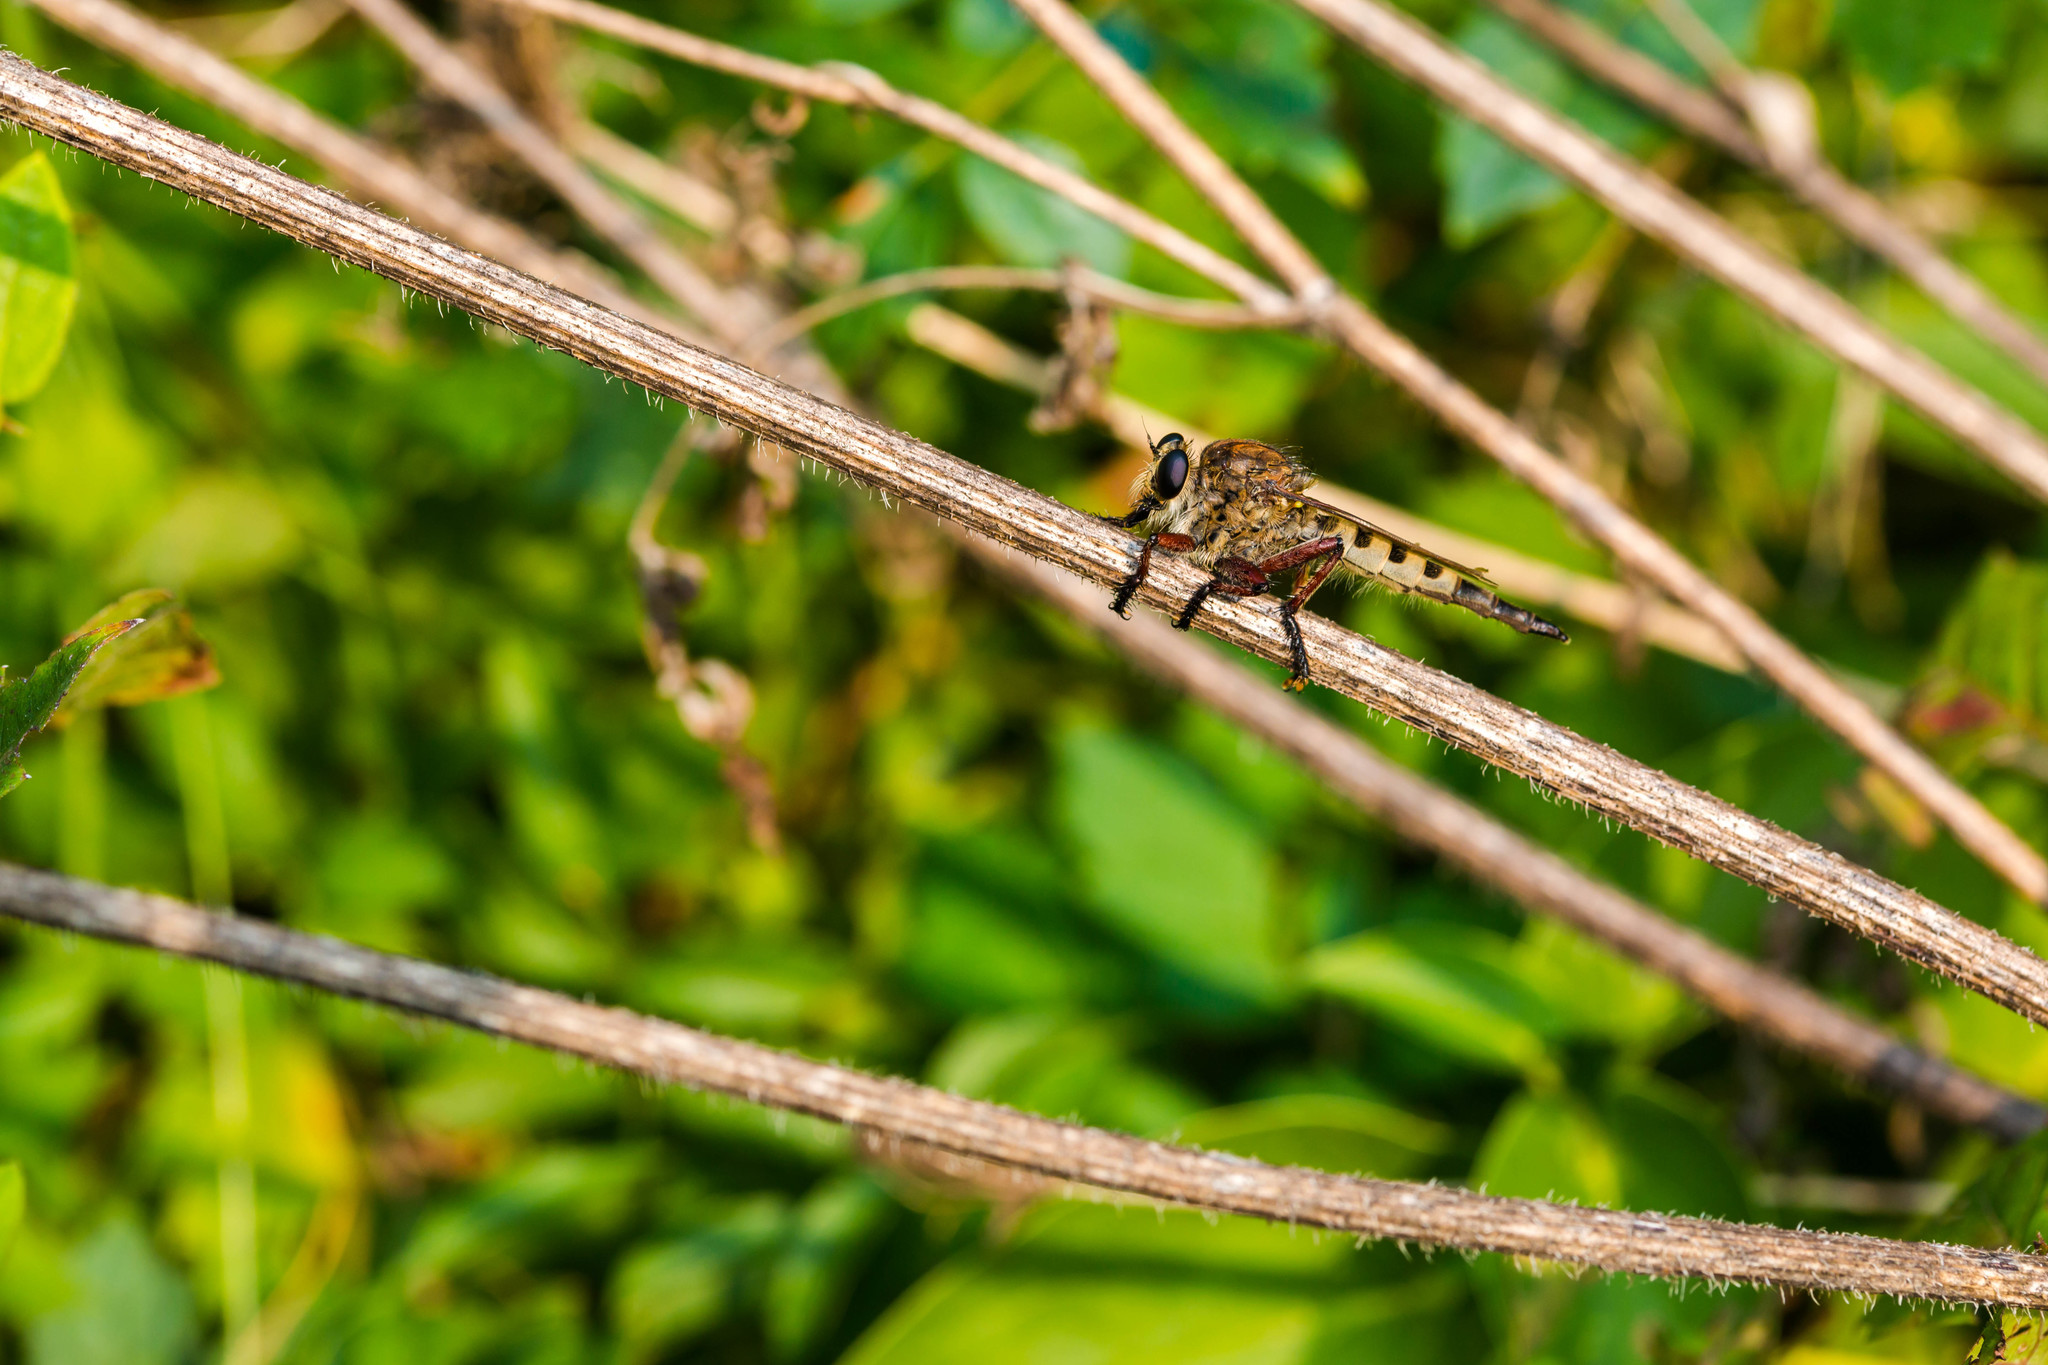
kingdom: Animalia
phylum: Arthropoda
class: Insecta
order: Diptera
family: Asilidae
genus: Promachus
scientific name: Promachus hinei
